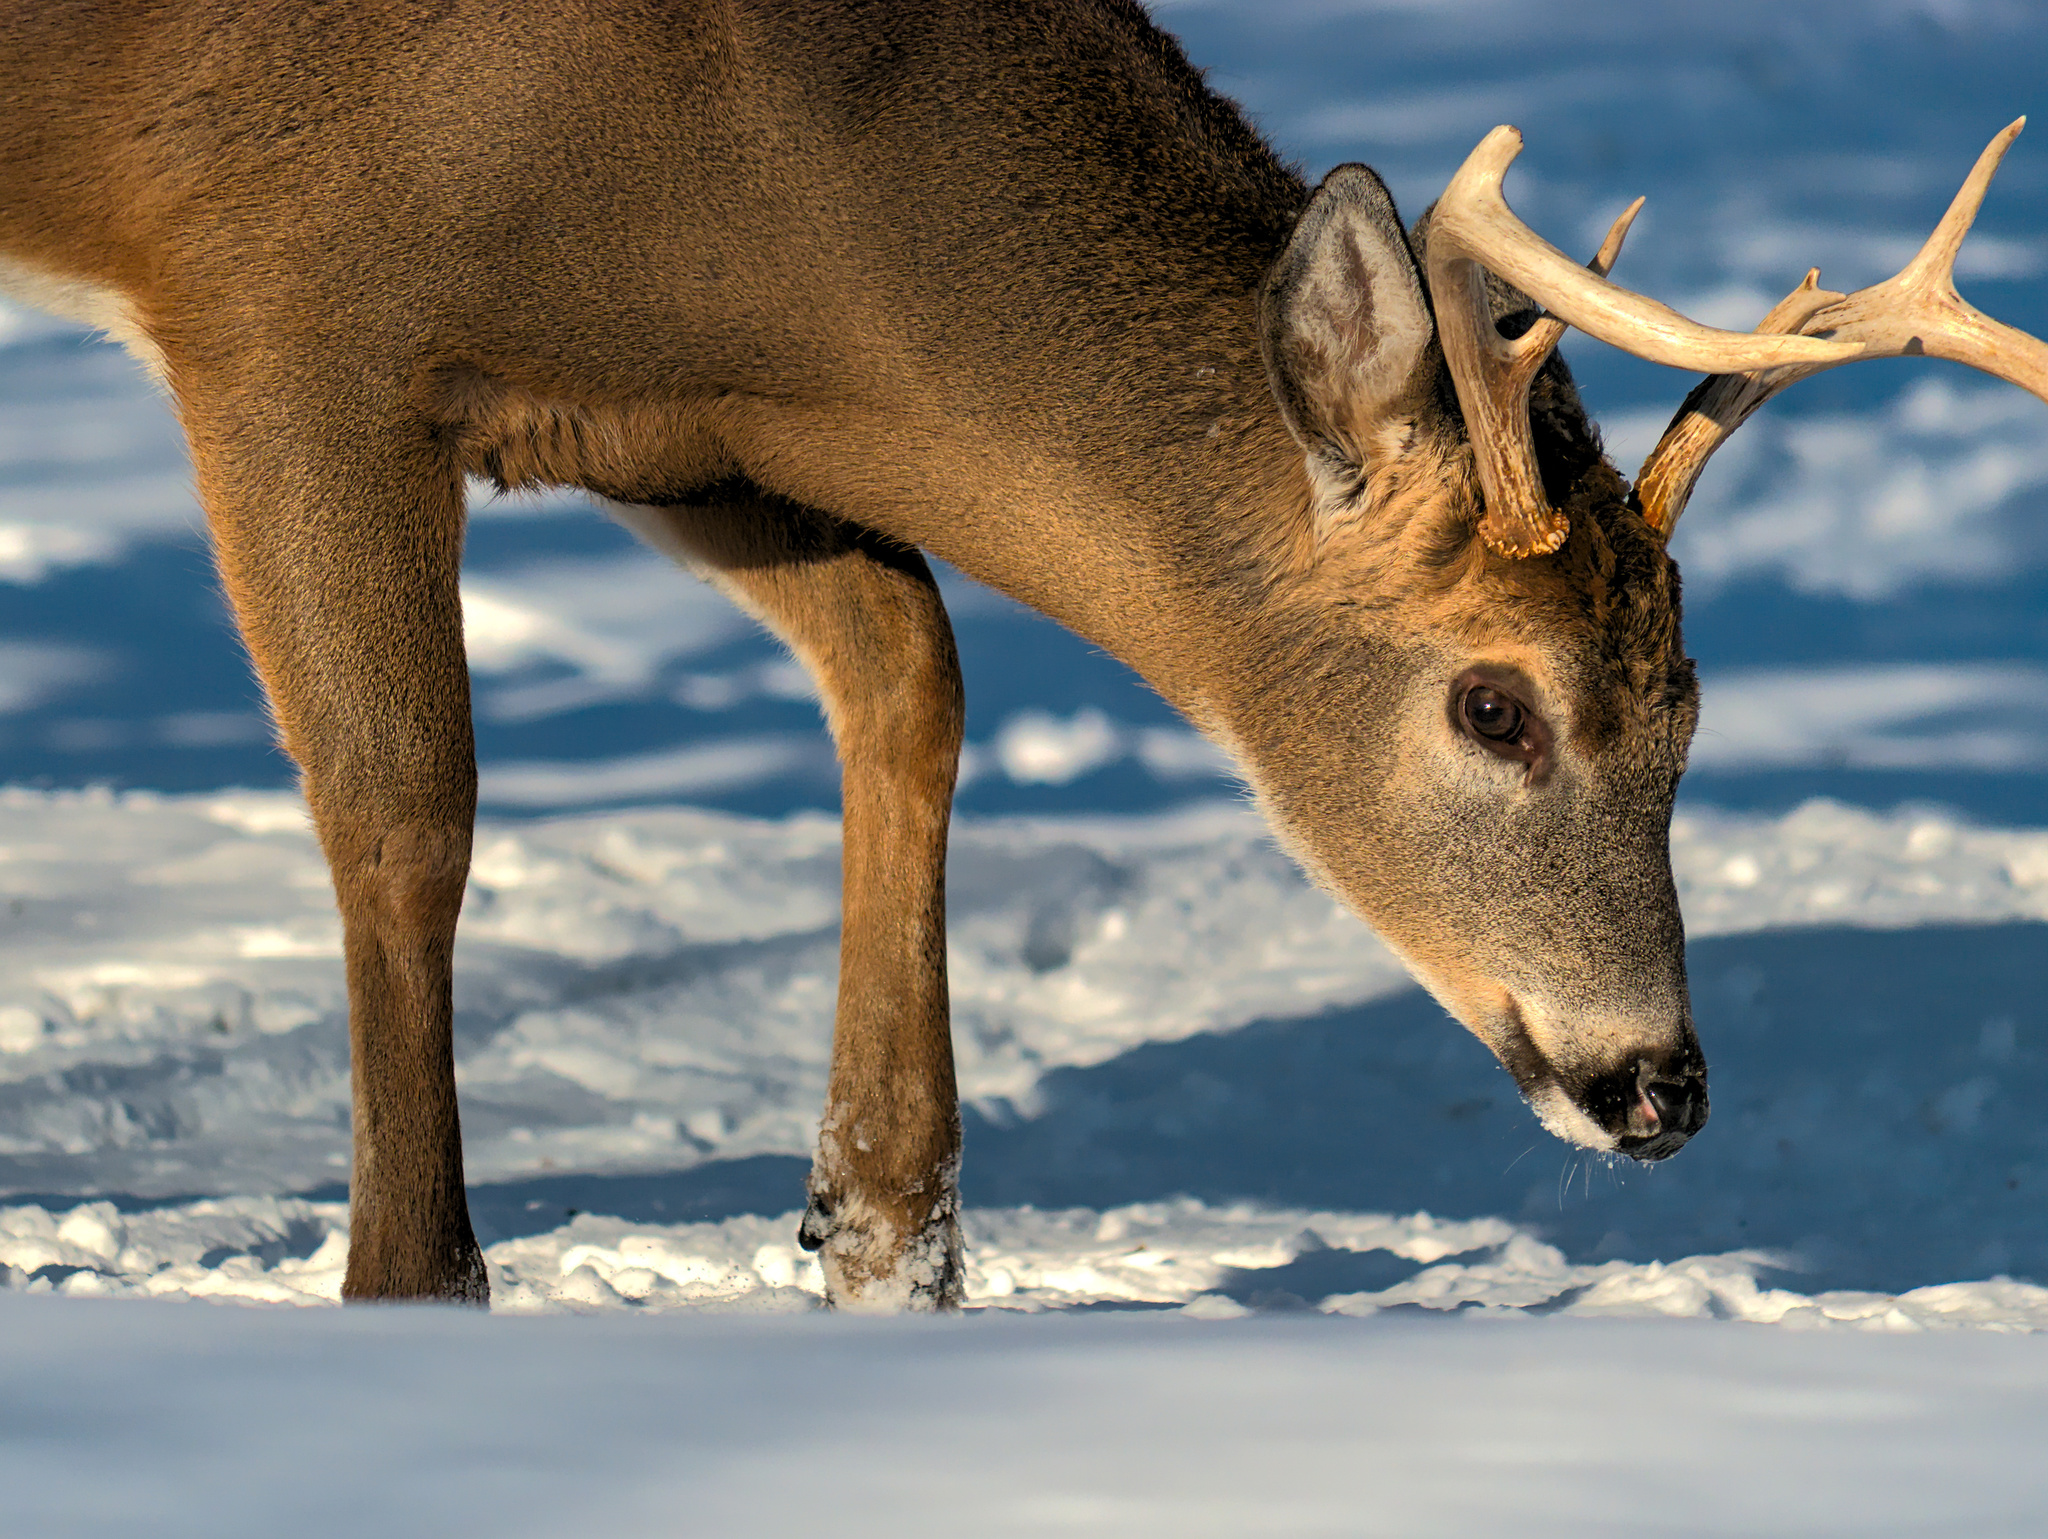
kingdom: Animalia
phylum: Chordata
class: Mammalia
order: Artiodactyla
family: Cervidae
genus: Odocoileus
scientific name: Odocoileus virginianus
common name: White-tailed deer
